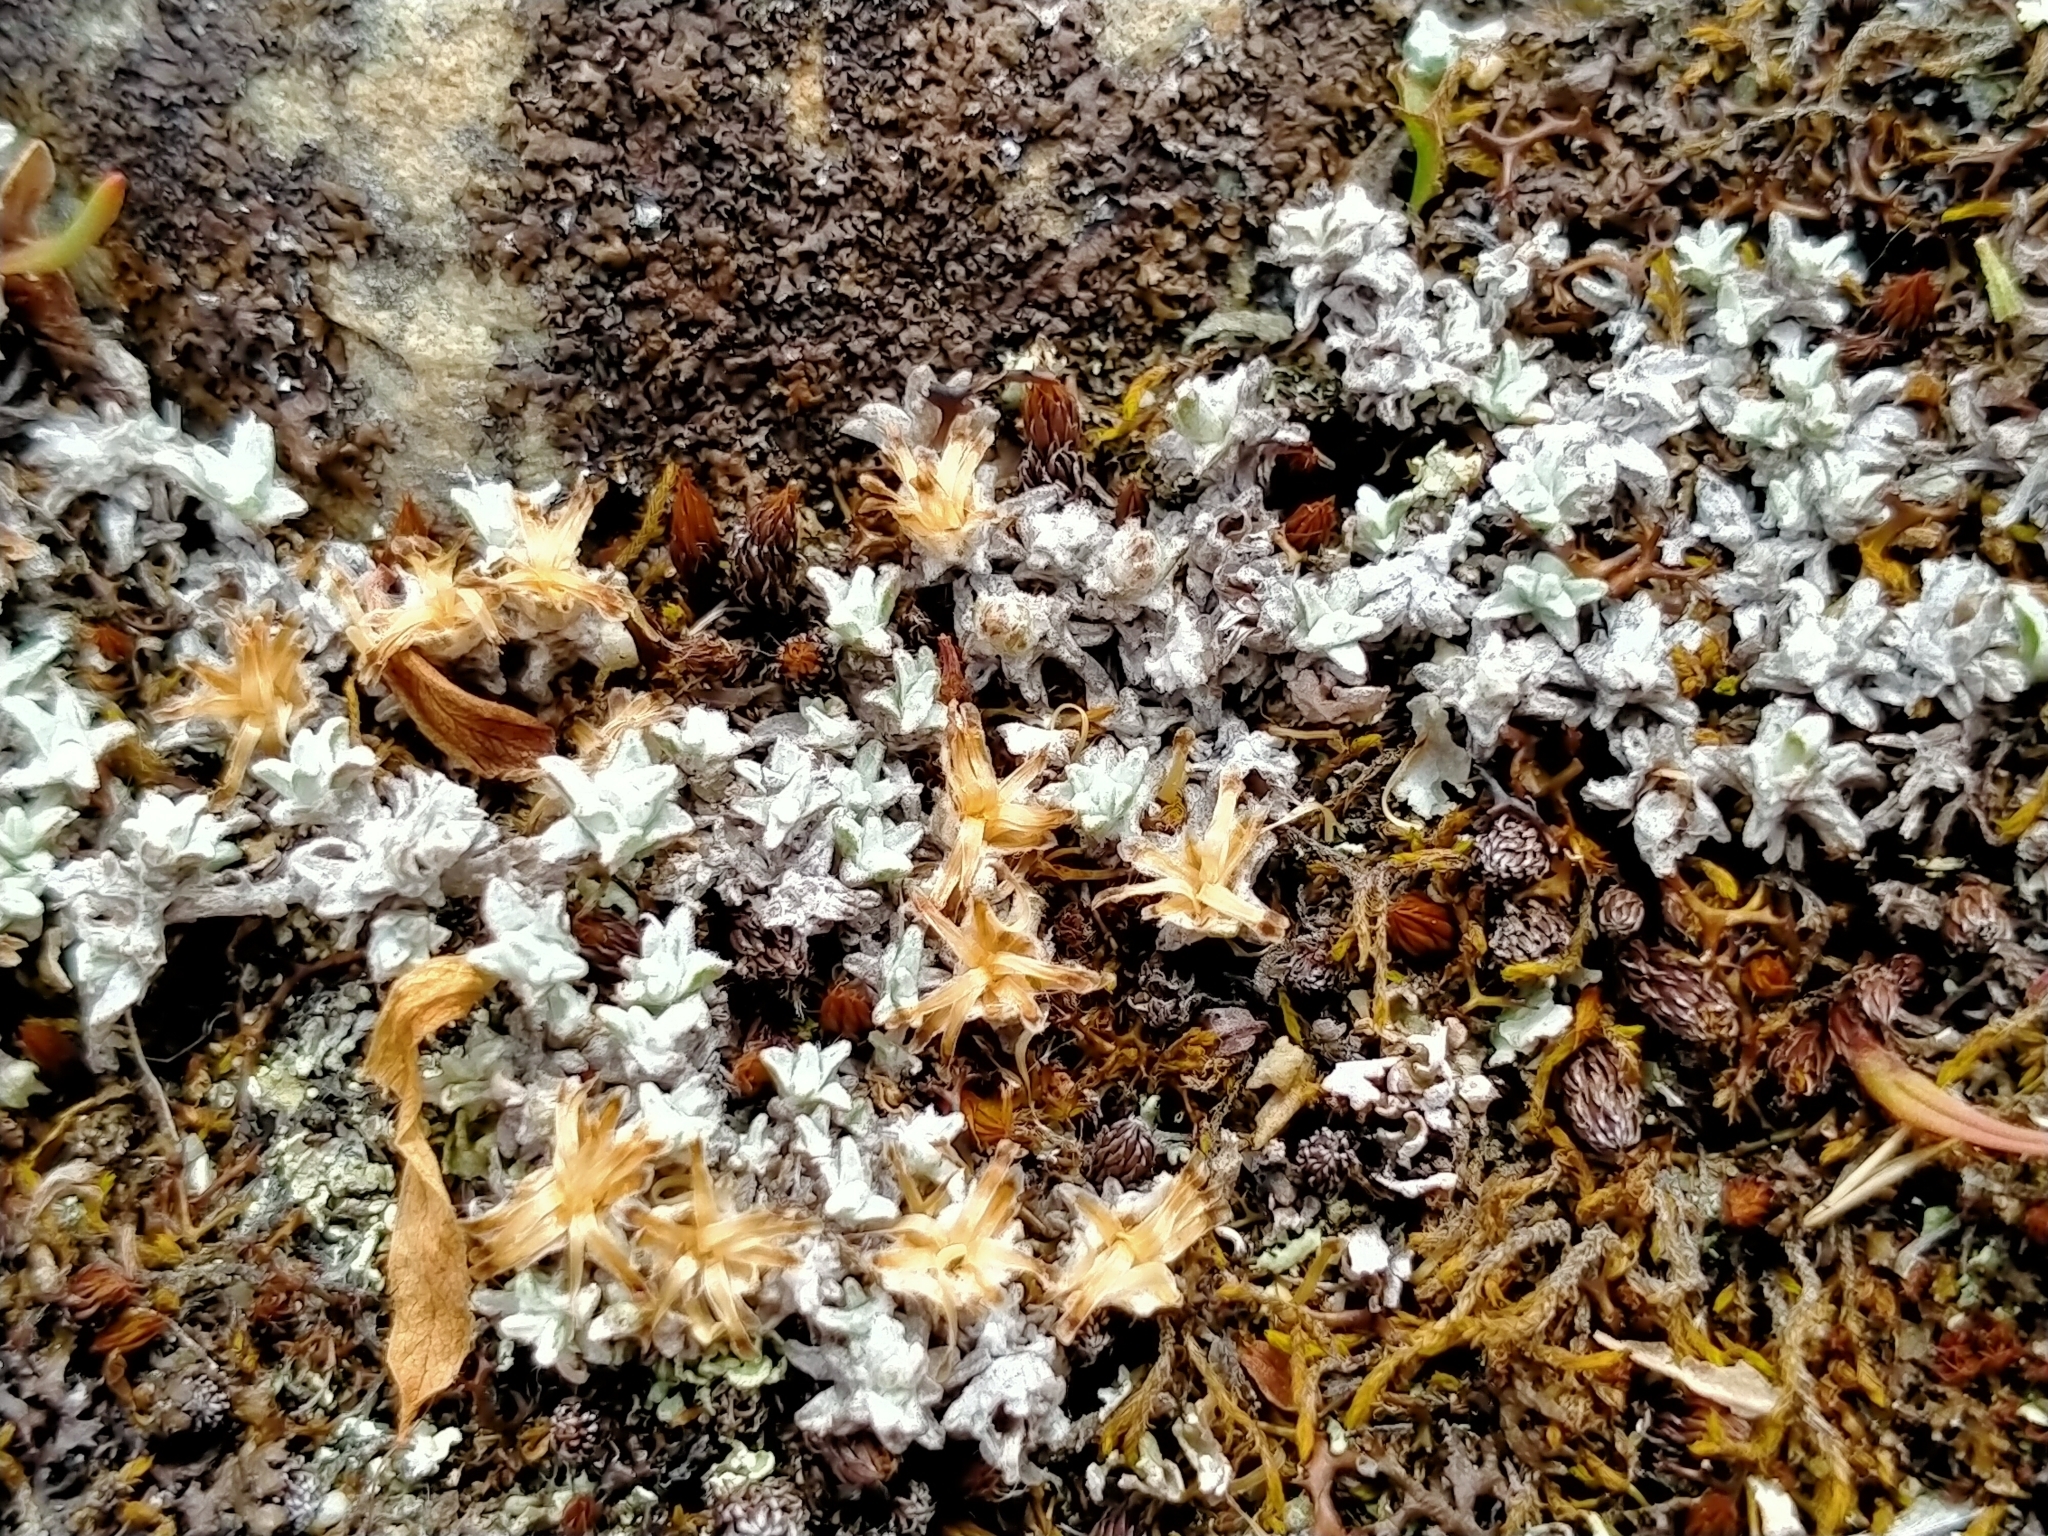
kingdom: Plantae
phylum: Tracheophyta
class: Magnoliopsida
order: Asterales
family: Asteraceae
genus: Raoulia
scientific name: Raoulia beauverdii
